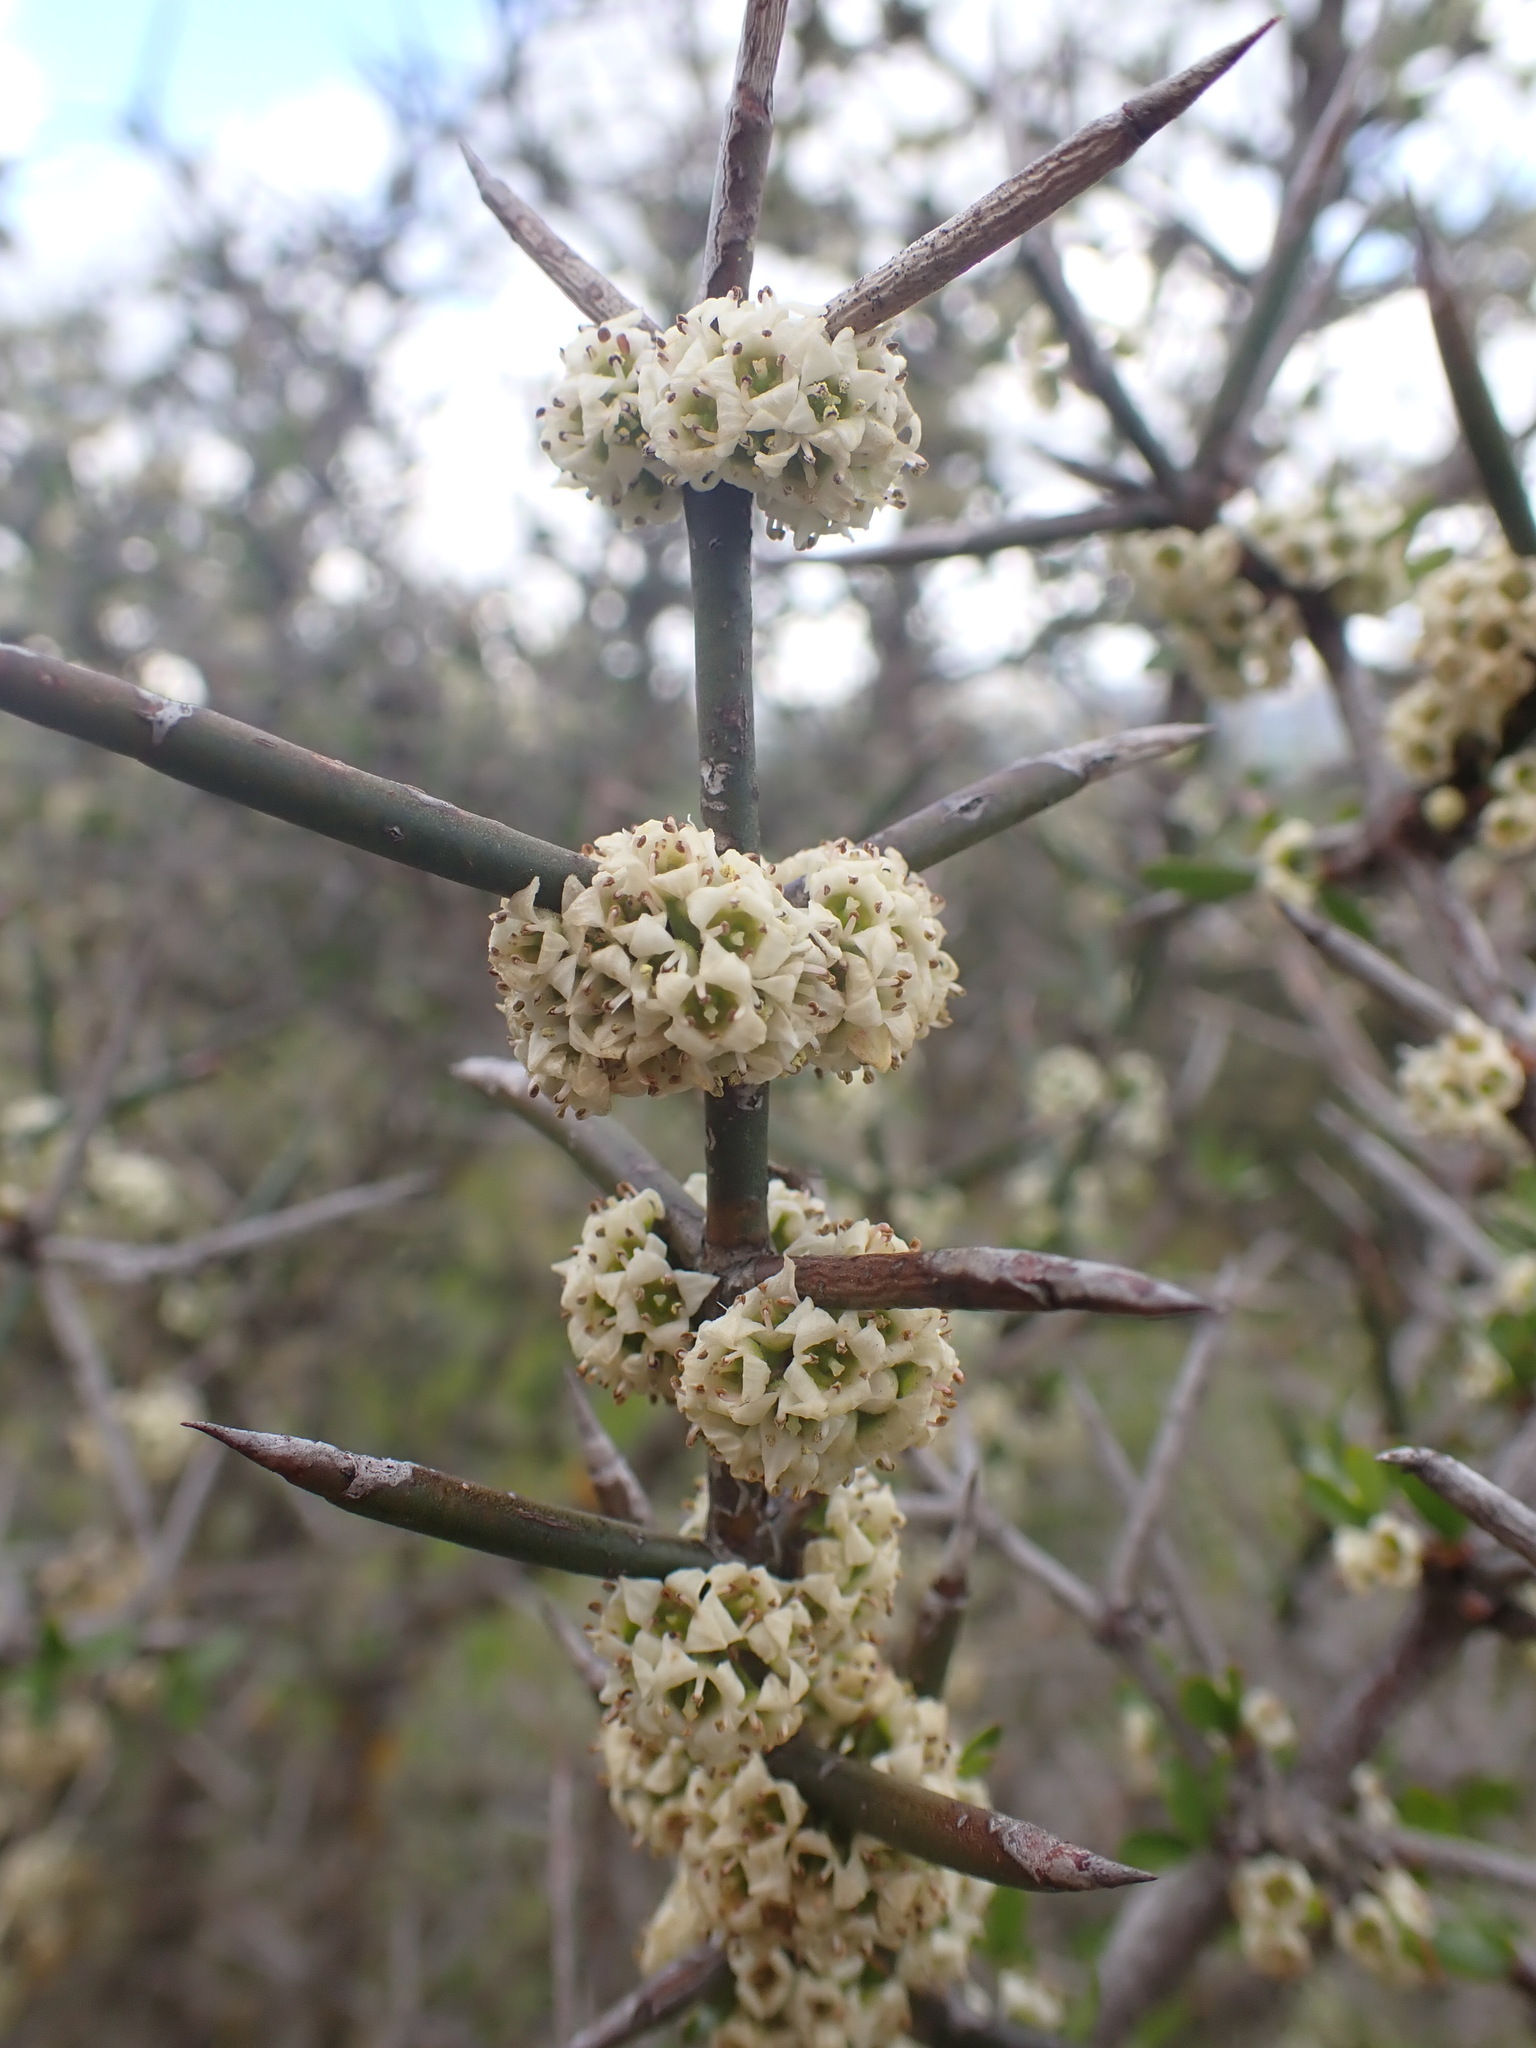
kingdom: Plantae
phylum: Tracheophyta
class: Magnoliopsida
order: Rosales
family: Rhamnaceae
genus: Discaria
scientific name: Discaria toumatou
